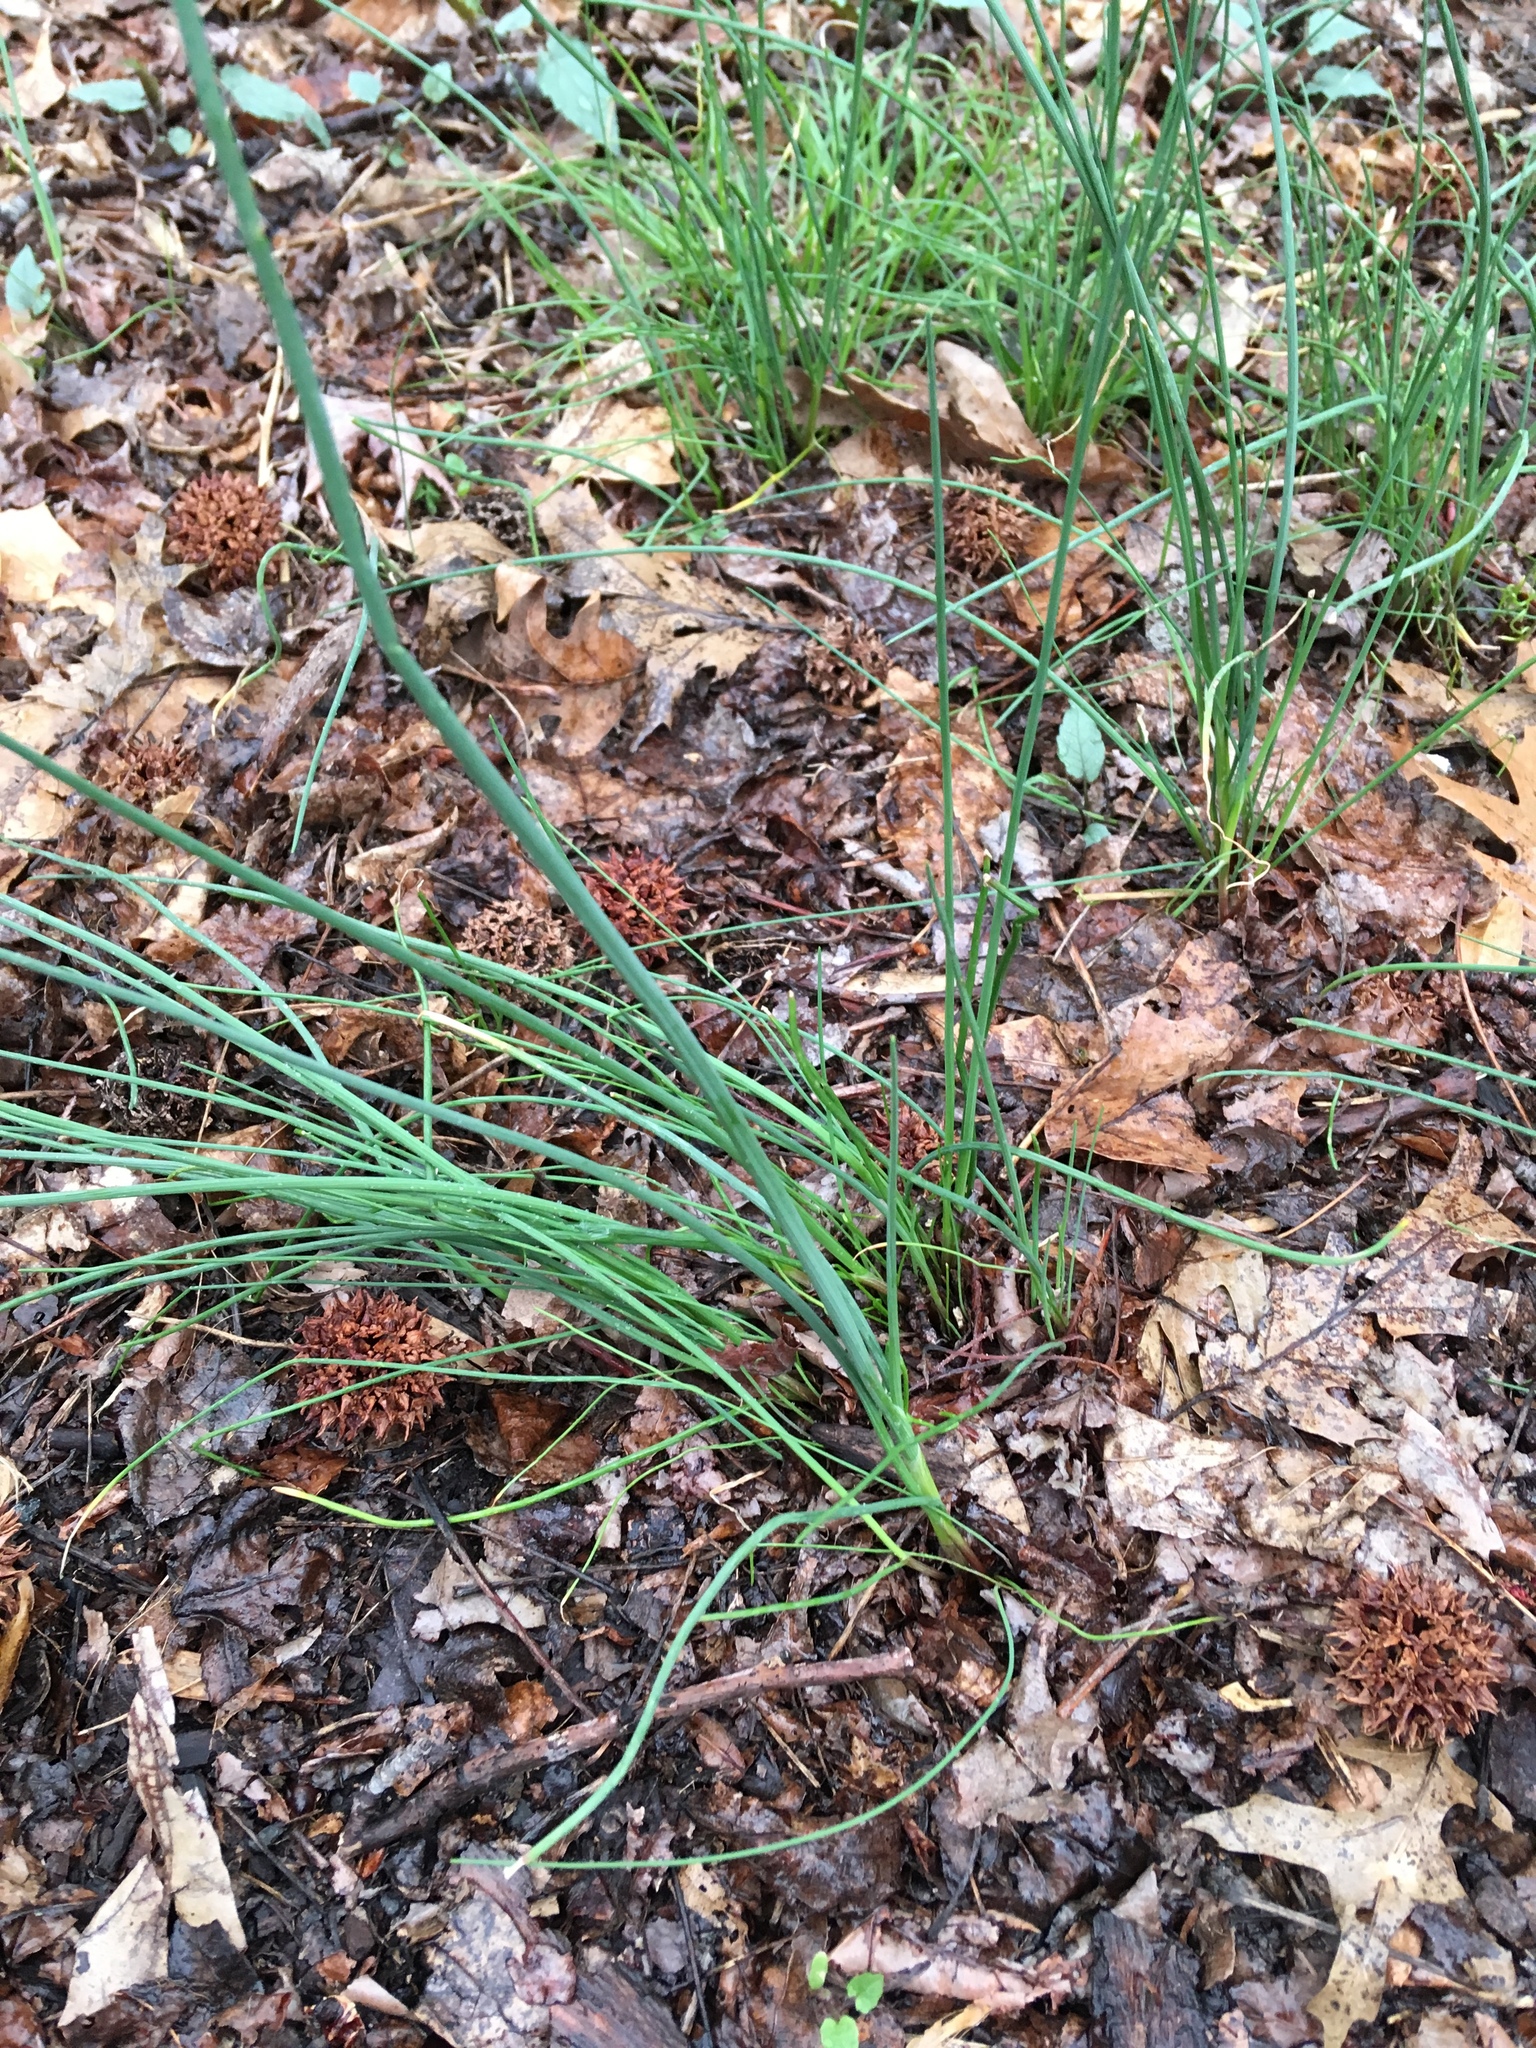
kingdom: Plantae
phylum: Tracheophyta
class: Liliopsida
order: Asparagales
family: Amaryllidaceae
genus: Allium
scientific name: Allium vineale
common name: Crow garlic
